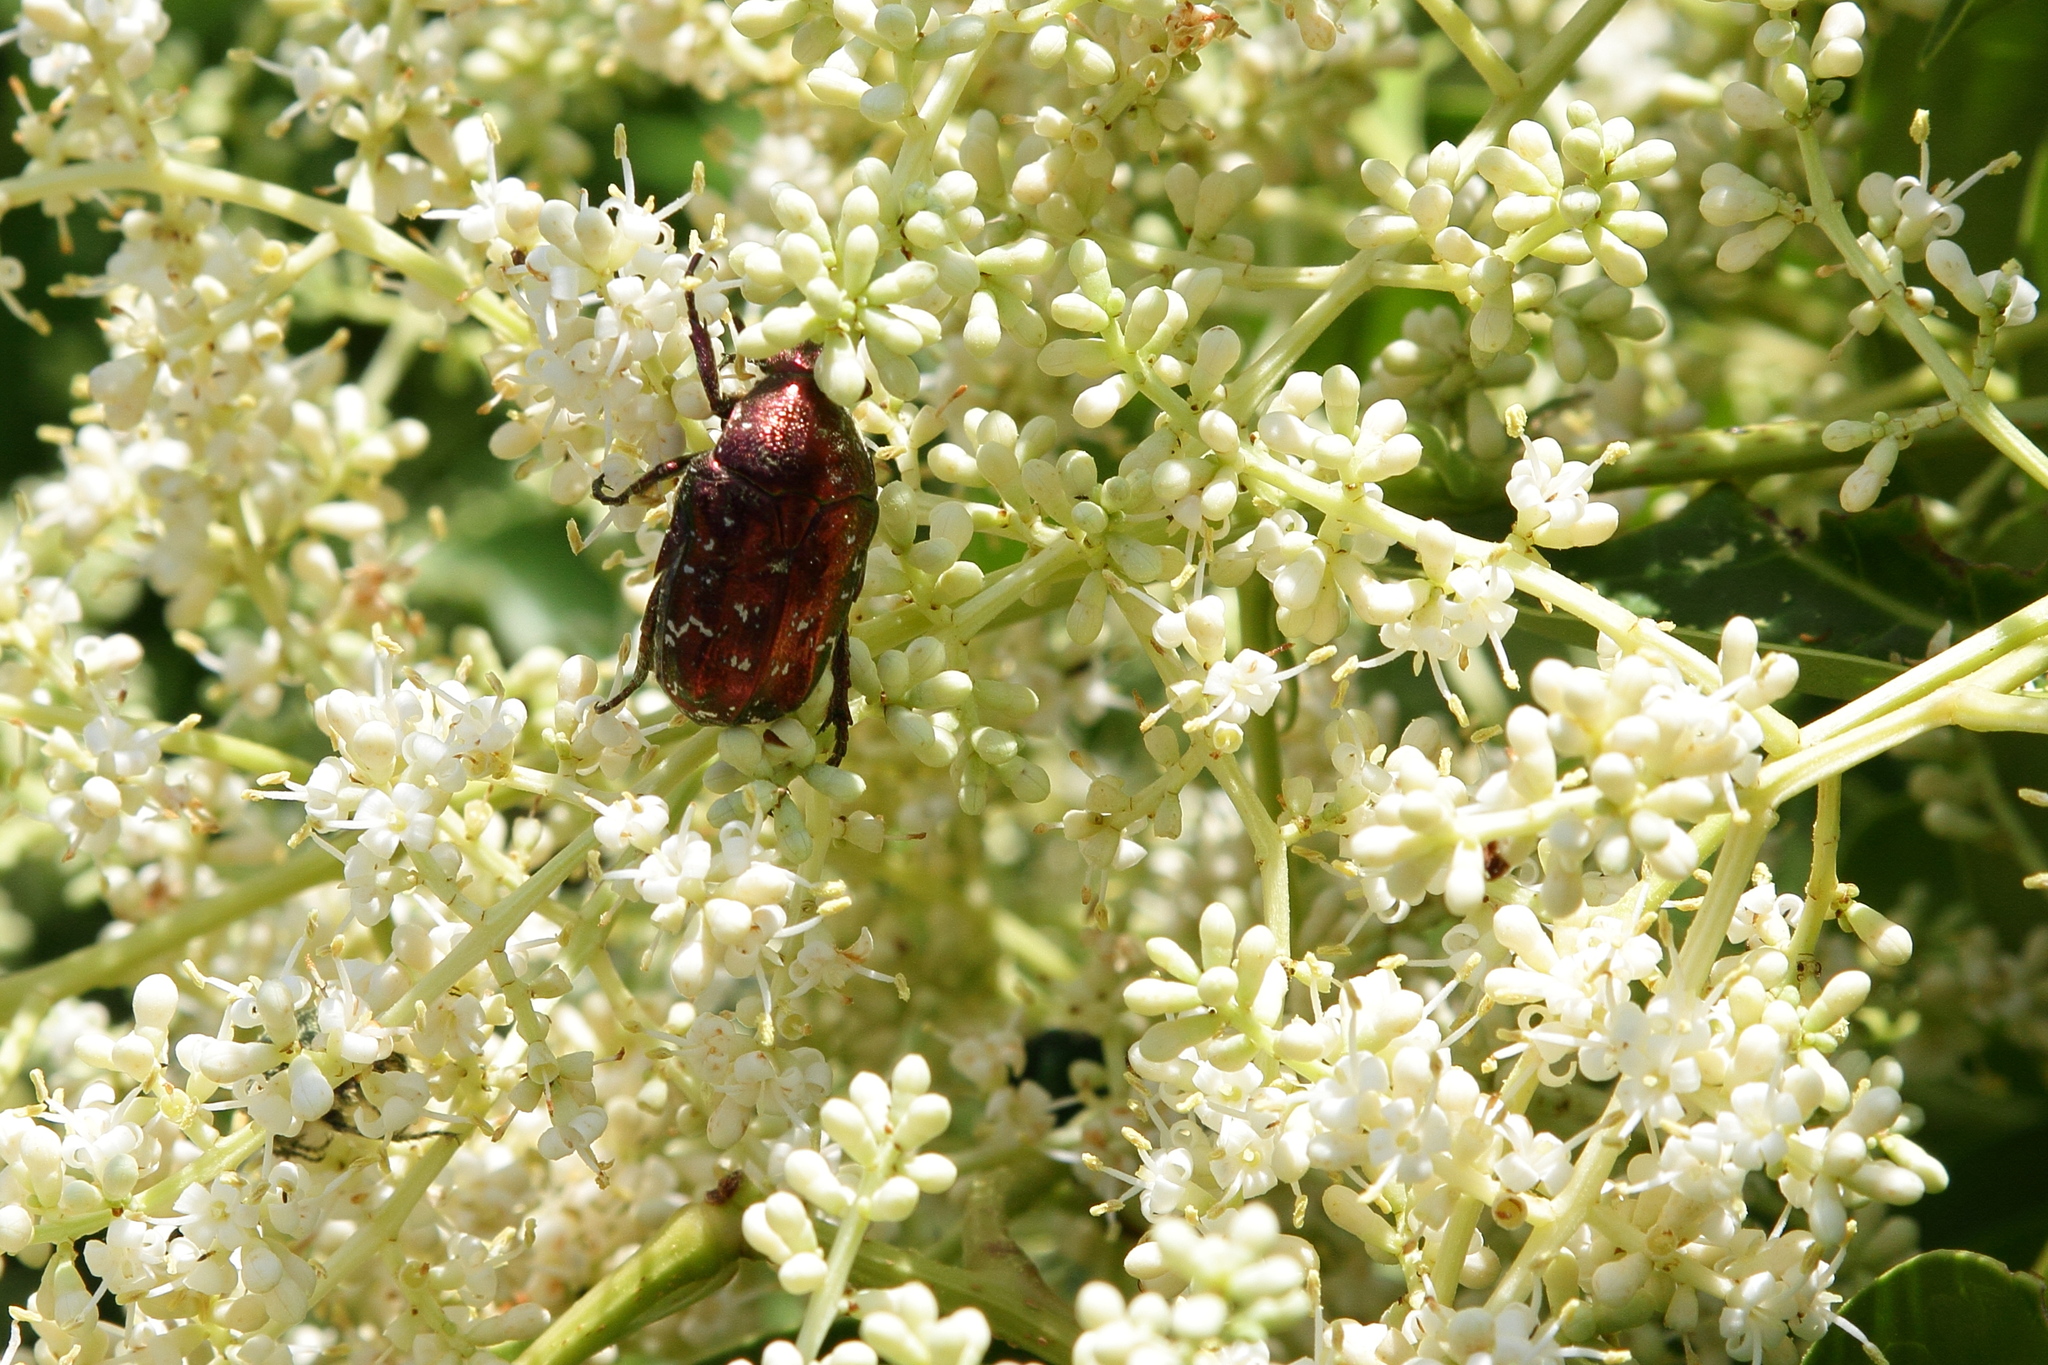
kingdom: Animalia
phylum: Arthropoda
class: Insecta
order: Coleoptera
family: Scarabaeidae
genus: Protaetia
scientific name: Protaetia orientalis
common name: Oriental flower beetle
